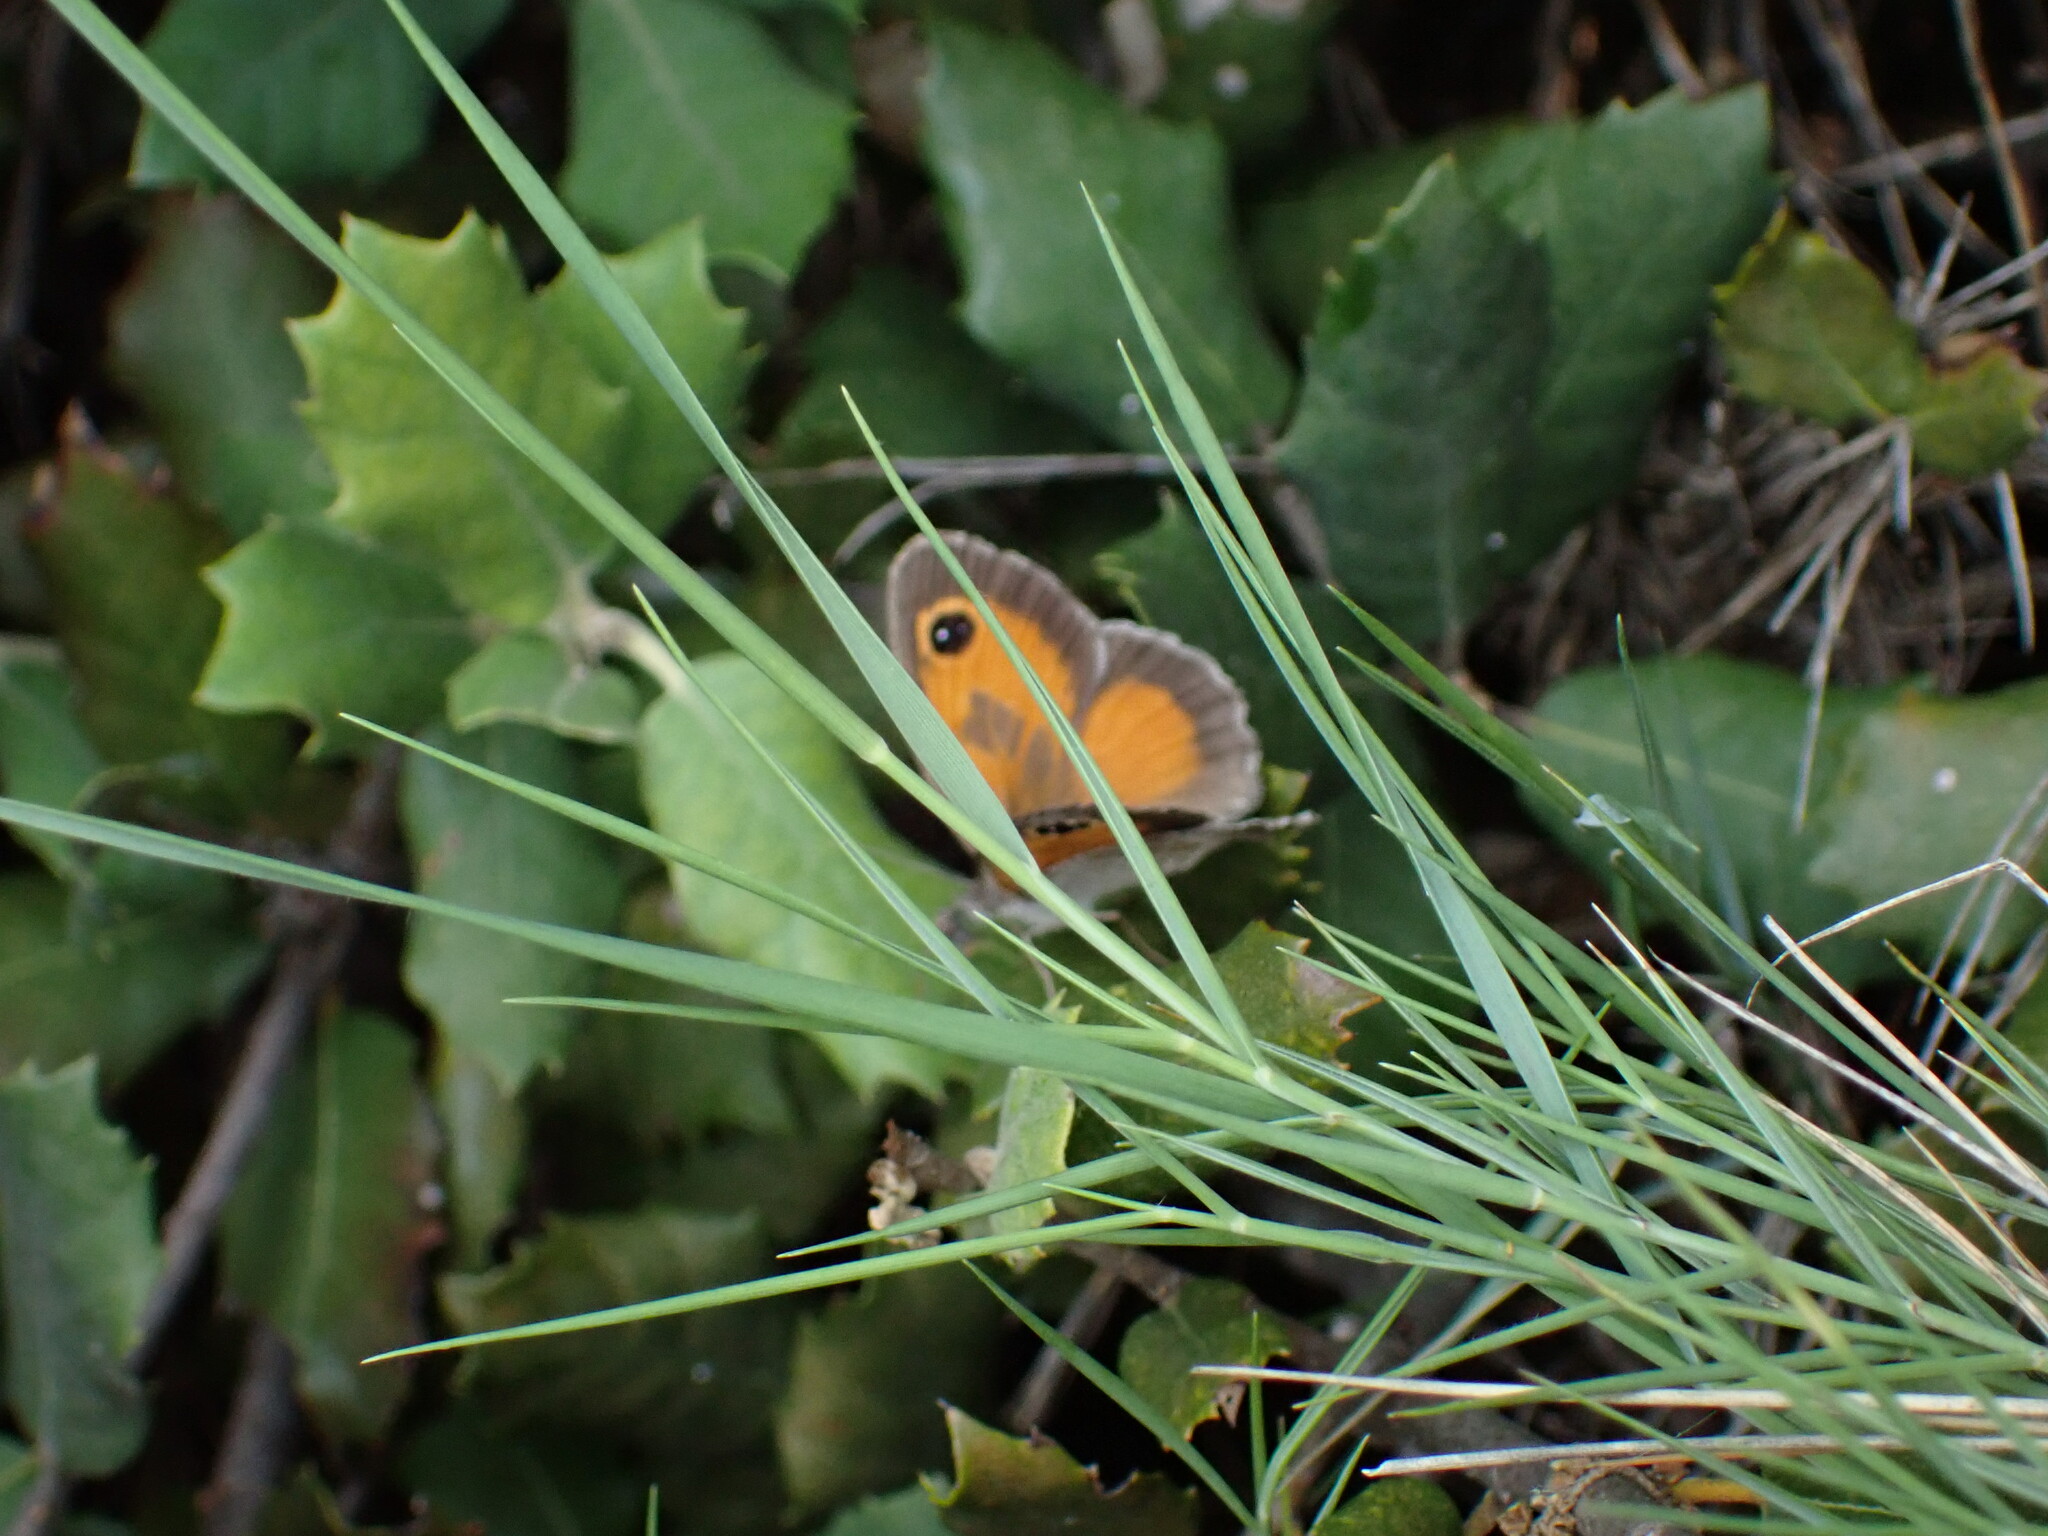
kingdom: Animalia
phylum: Arthropoda
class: Insecta
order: Lepidoptera
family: Nymphalidae
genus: Pyronia
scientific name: Pyronia cecilia
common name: Southern gatekeeper
